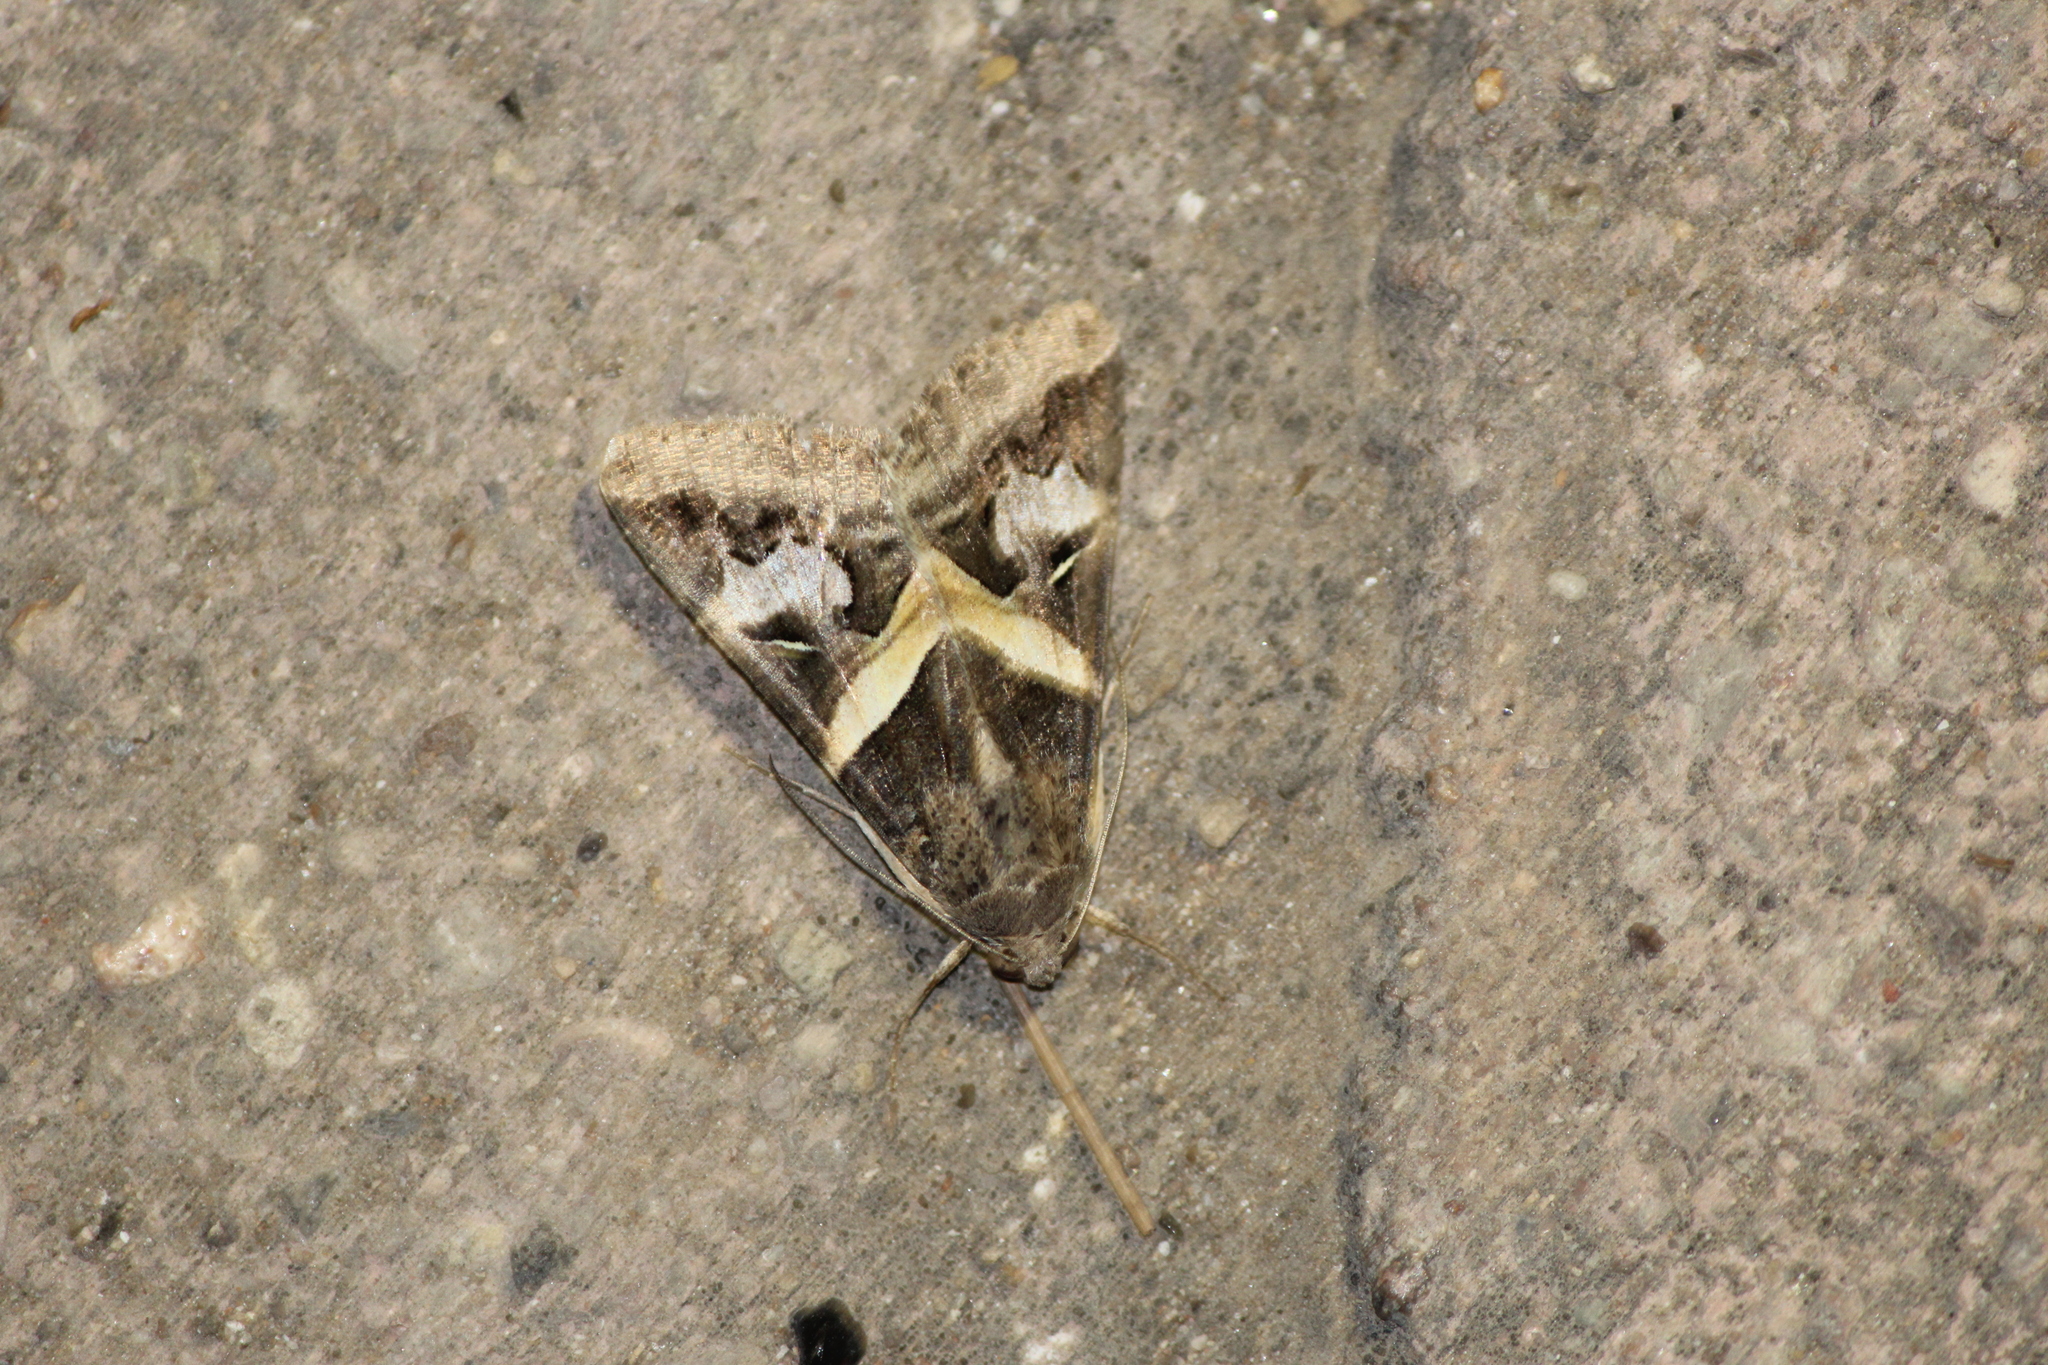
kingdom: Animalia
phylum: Arthropoda
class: Insecta
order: Lepidoptera
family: Erebidae
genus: Melipotis
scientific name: Melipotis indomita
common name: Moth
